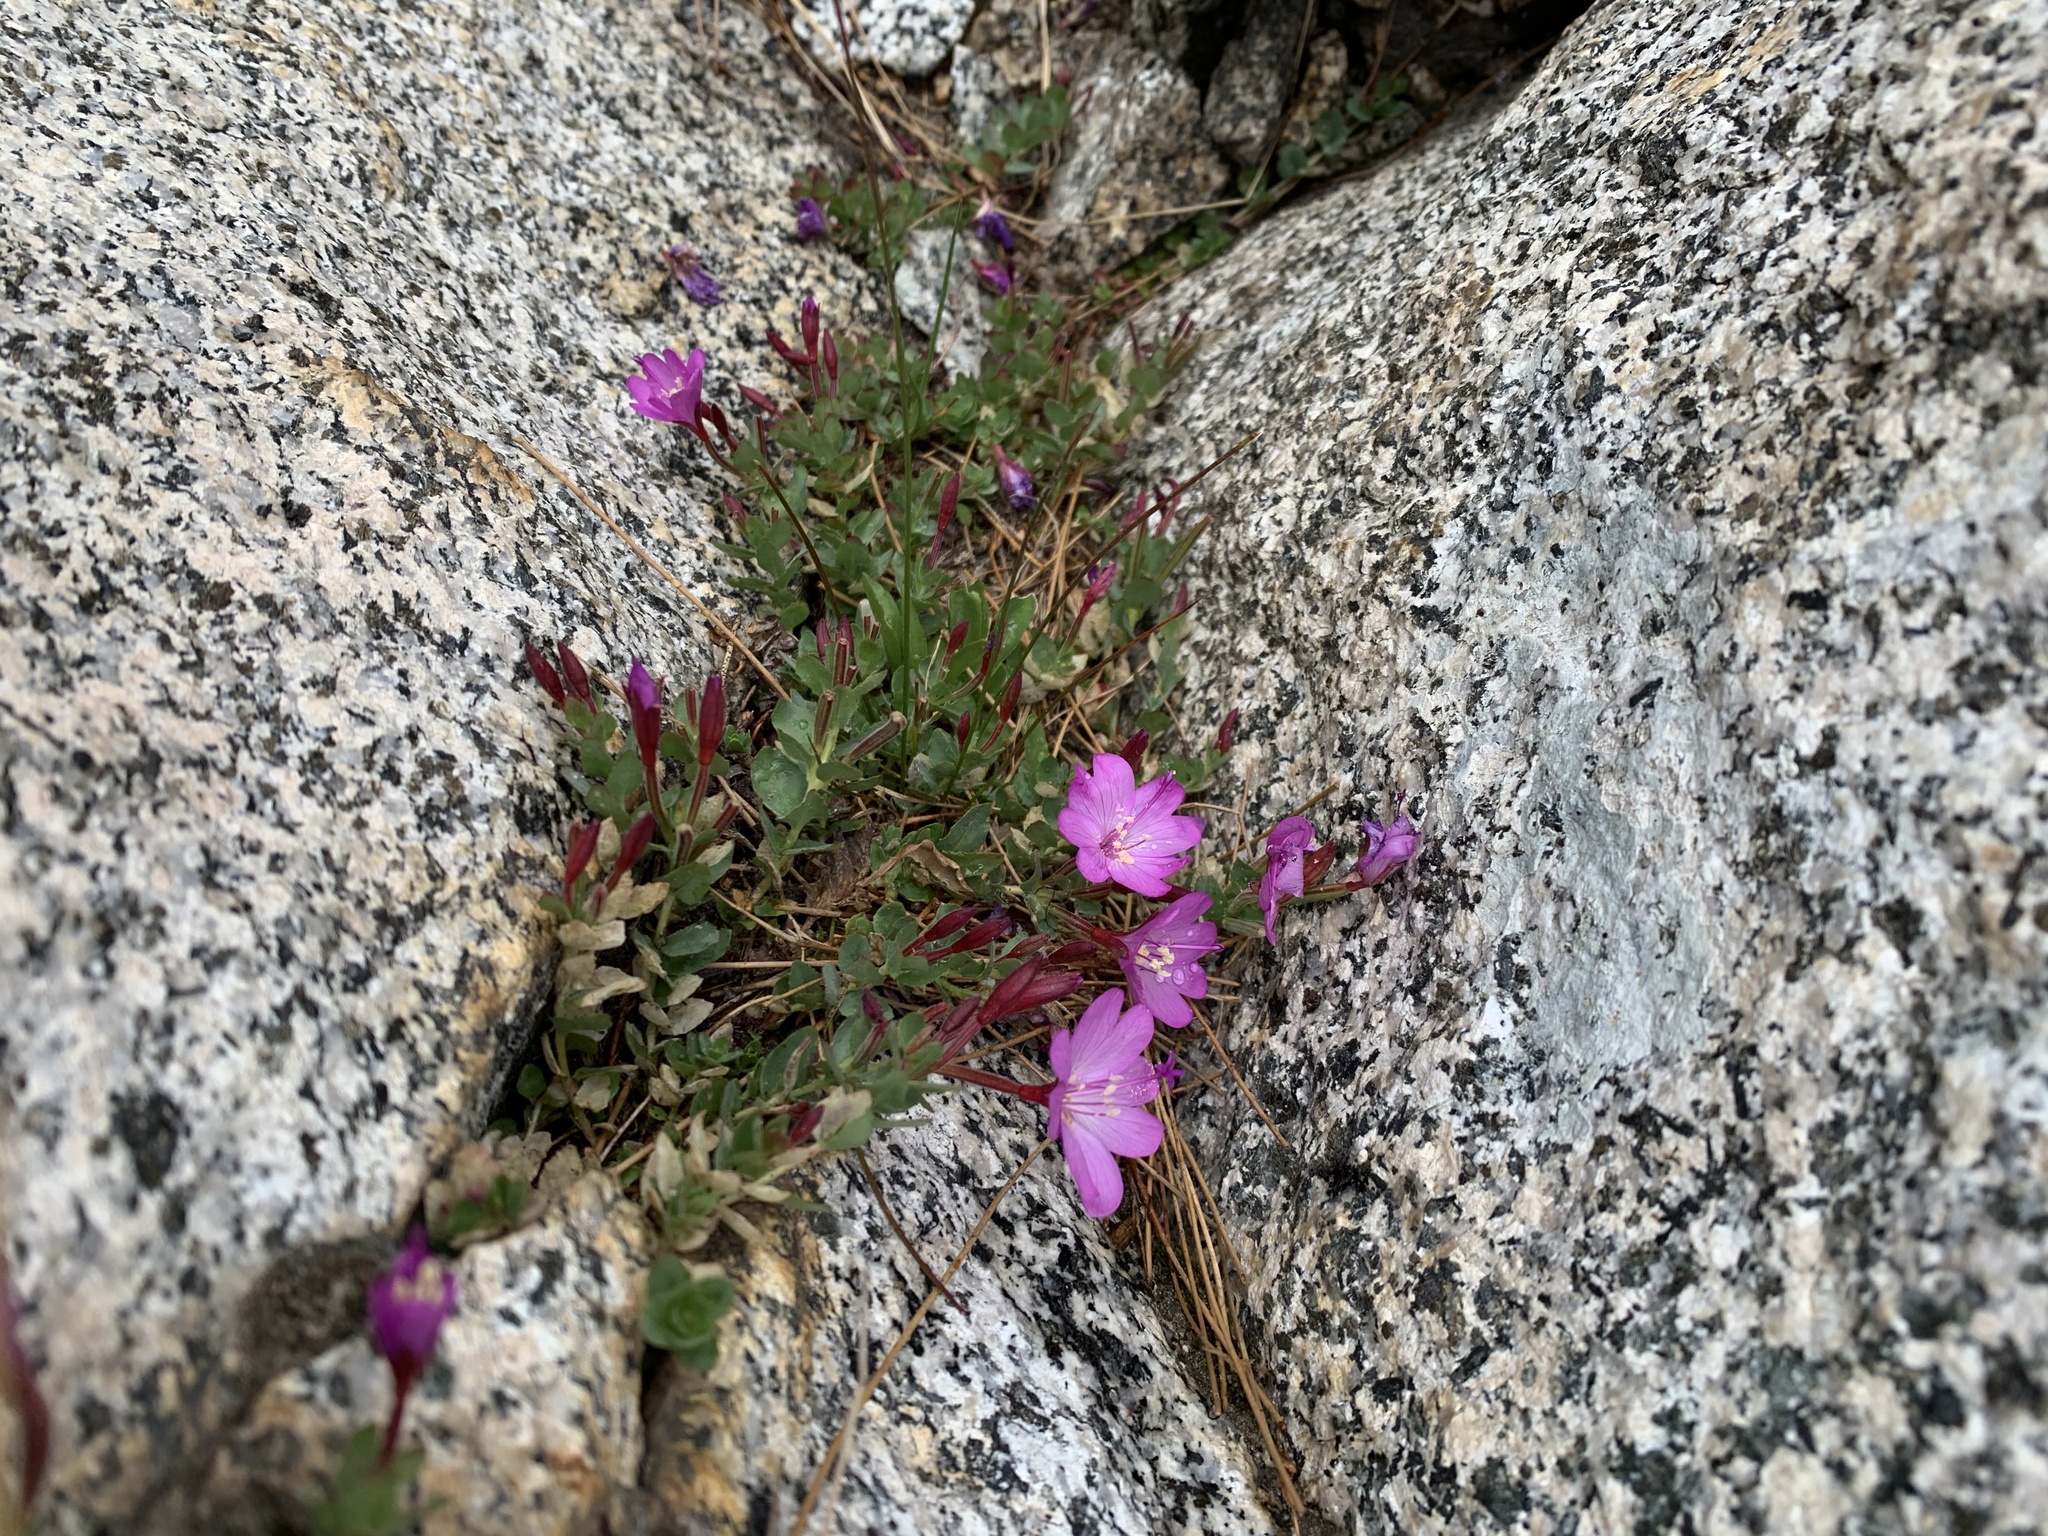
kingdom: Plantae
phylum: Tracheophyta
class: Magnoliopsida
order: Myrtales
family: Onagraceae
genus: Epilobium
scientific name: Epilobium obcordatum
